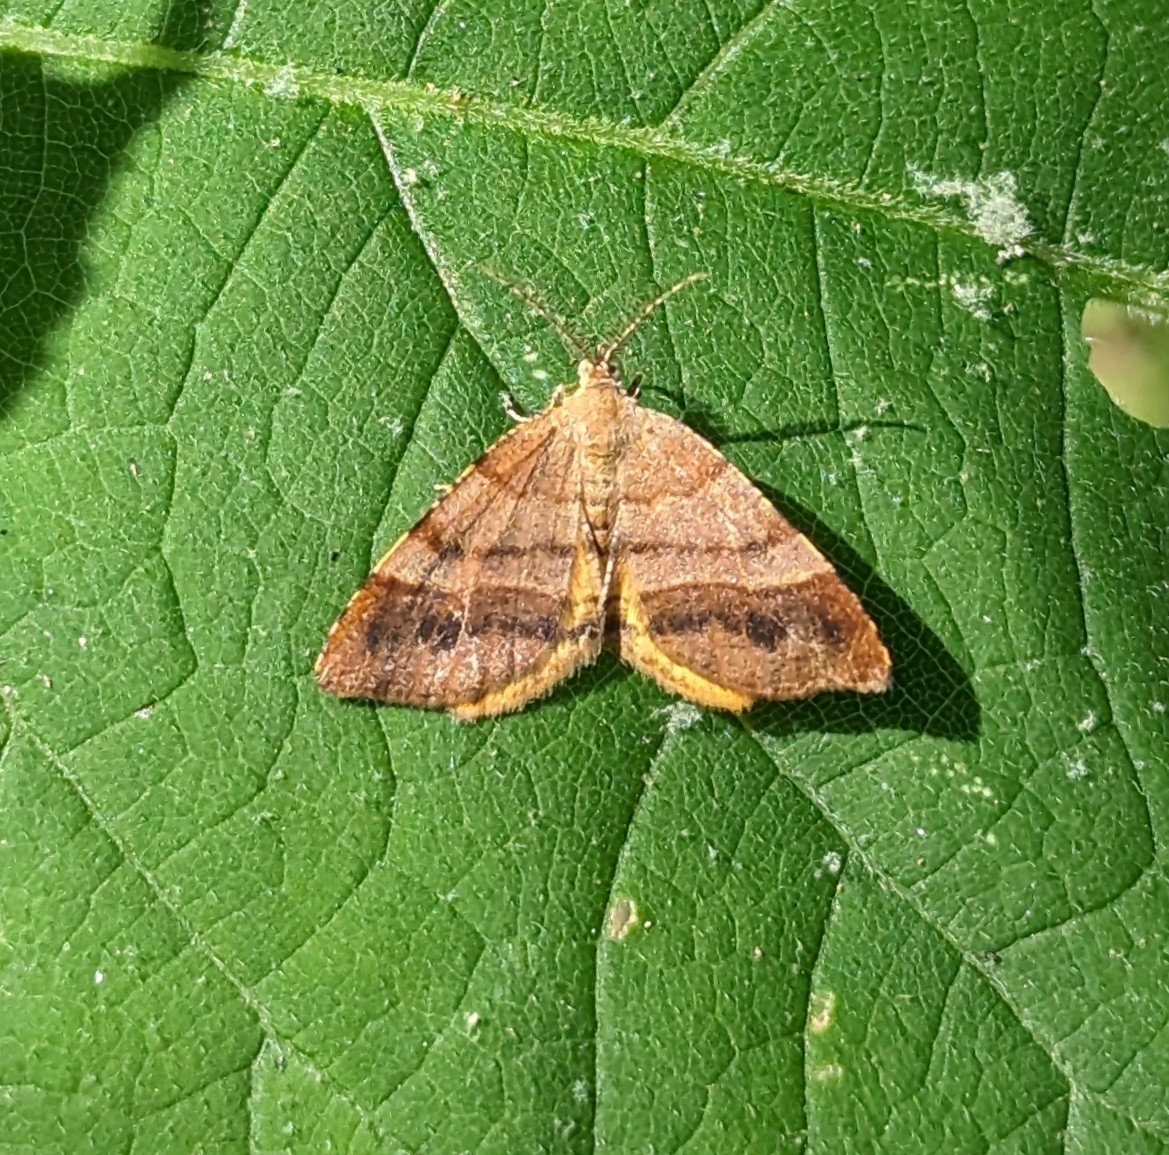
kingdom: Animalia
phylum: Arthropoda
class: Insecta
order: Lepidoptera
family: Geometridae
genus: Mellilla
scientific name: Mellilla xanthometata
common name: Orange wing moth
